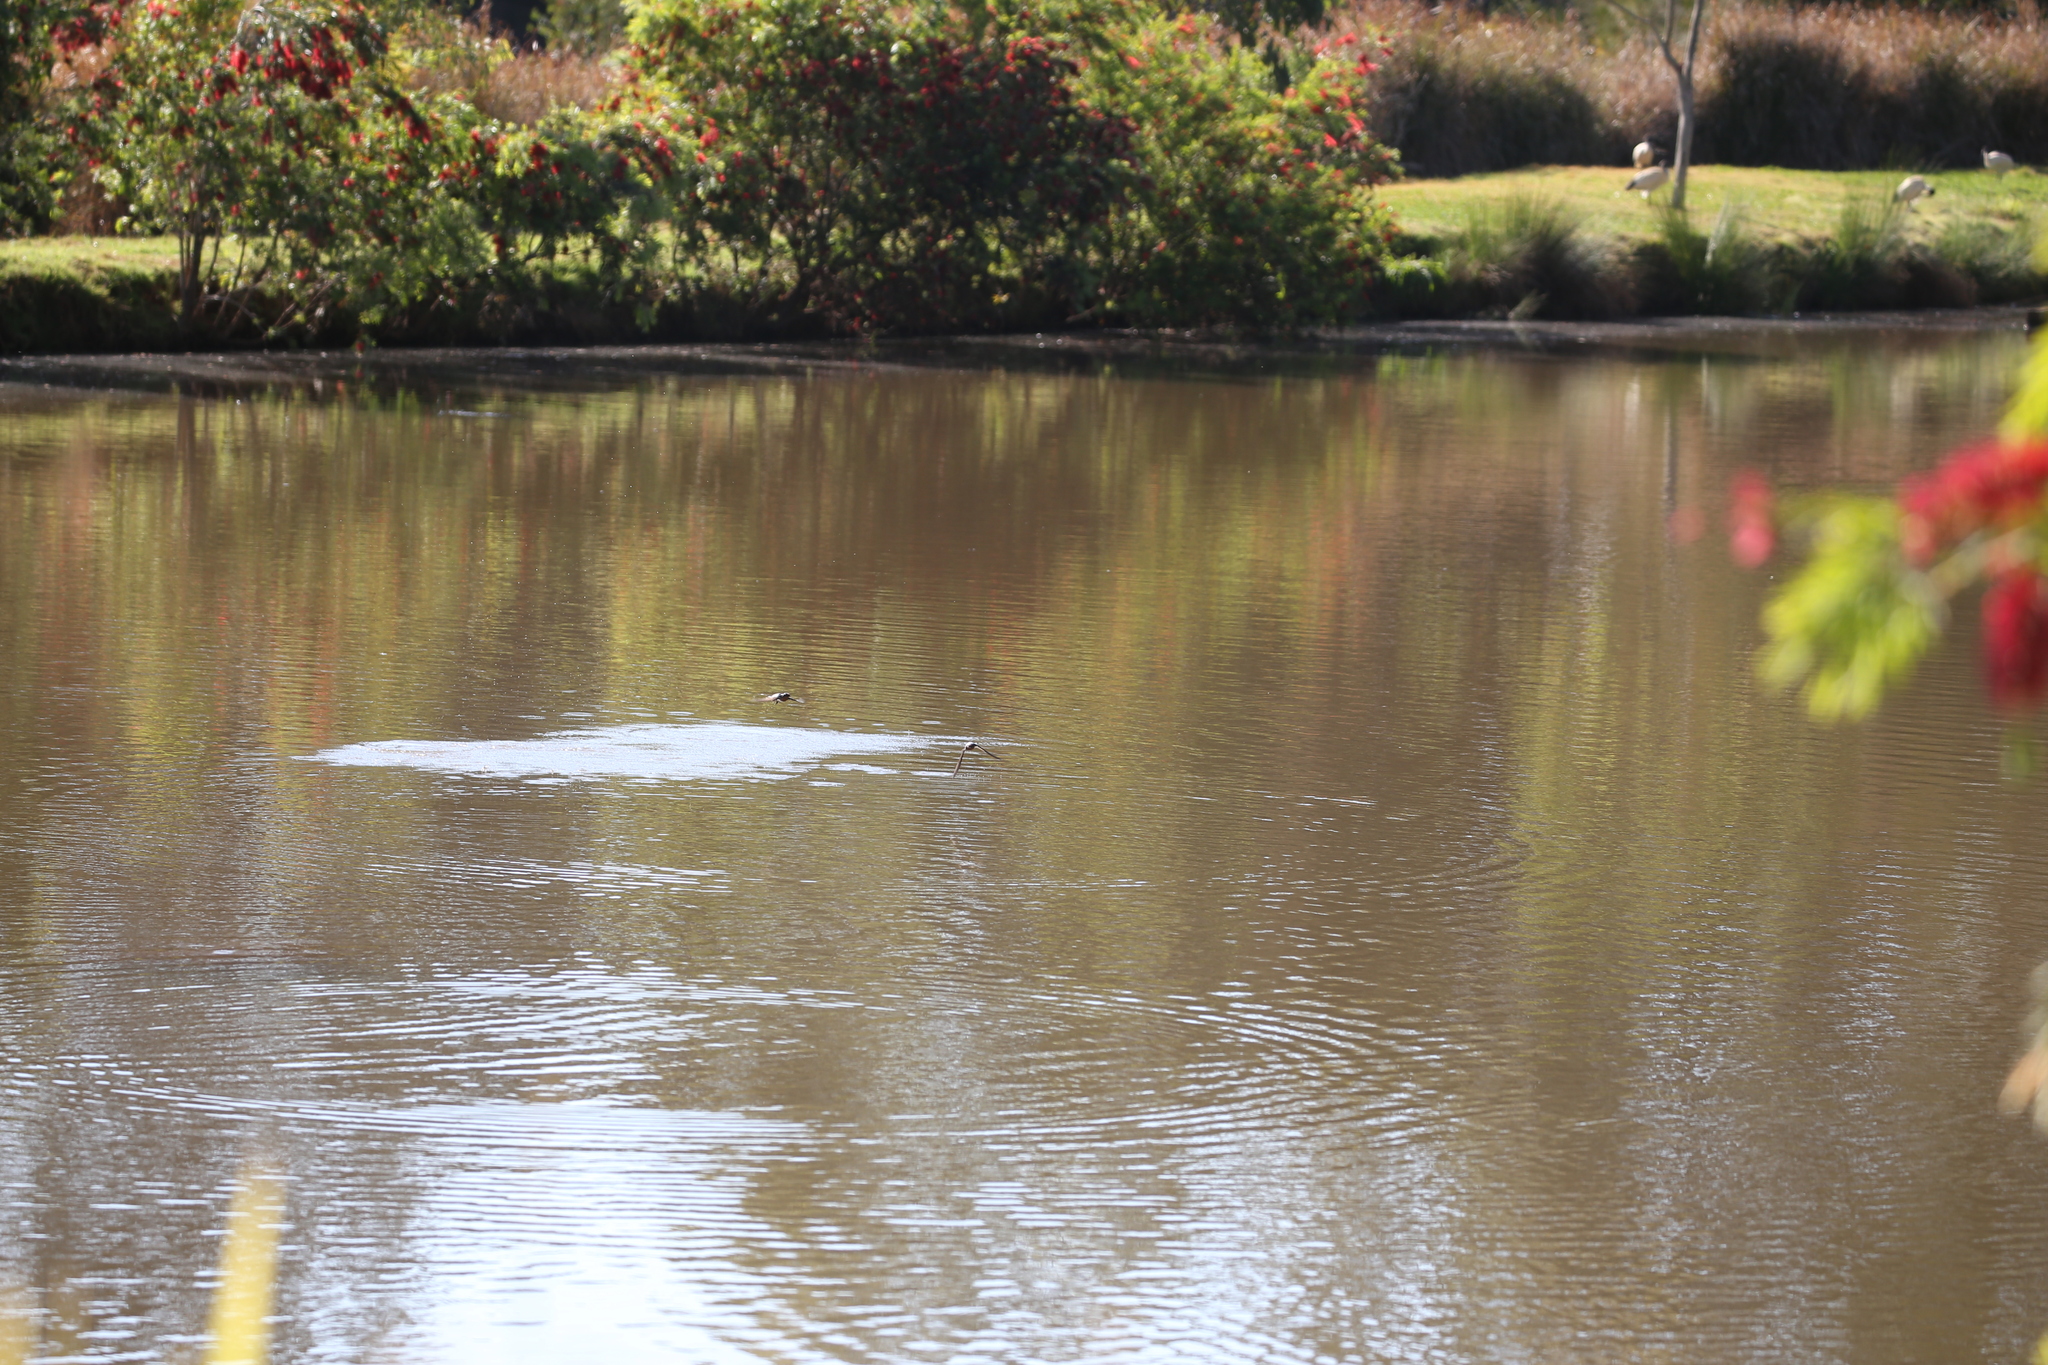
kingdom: Animalia
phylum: Chordata
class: Aves
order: Passeriformes
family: Hirundinidae
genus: Hirundo
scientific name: Hirundo neoxena
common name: Welcome swallow
